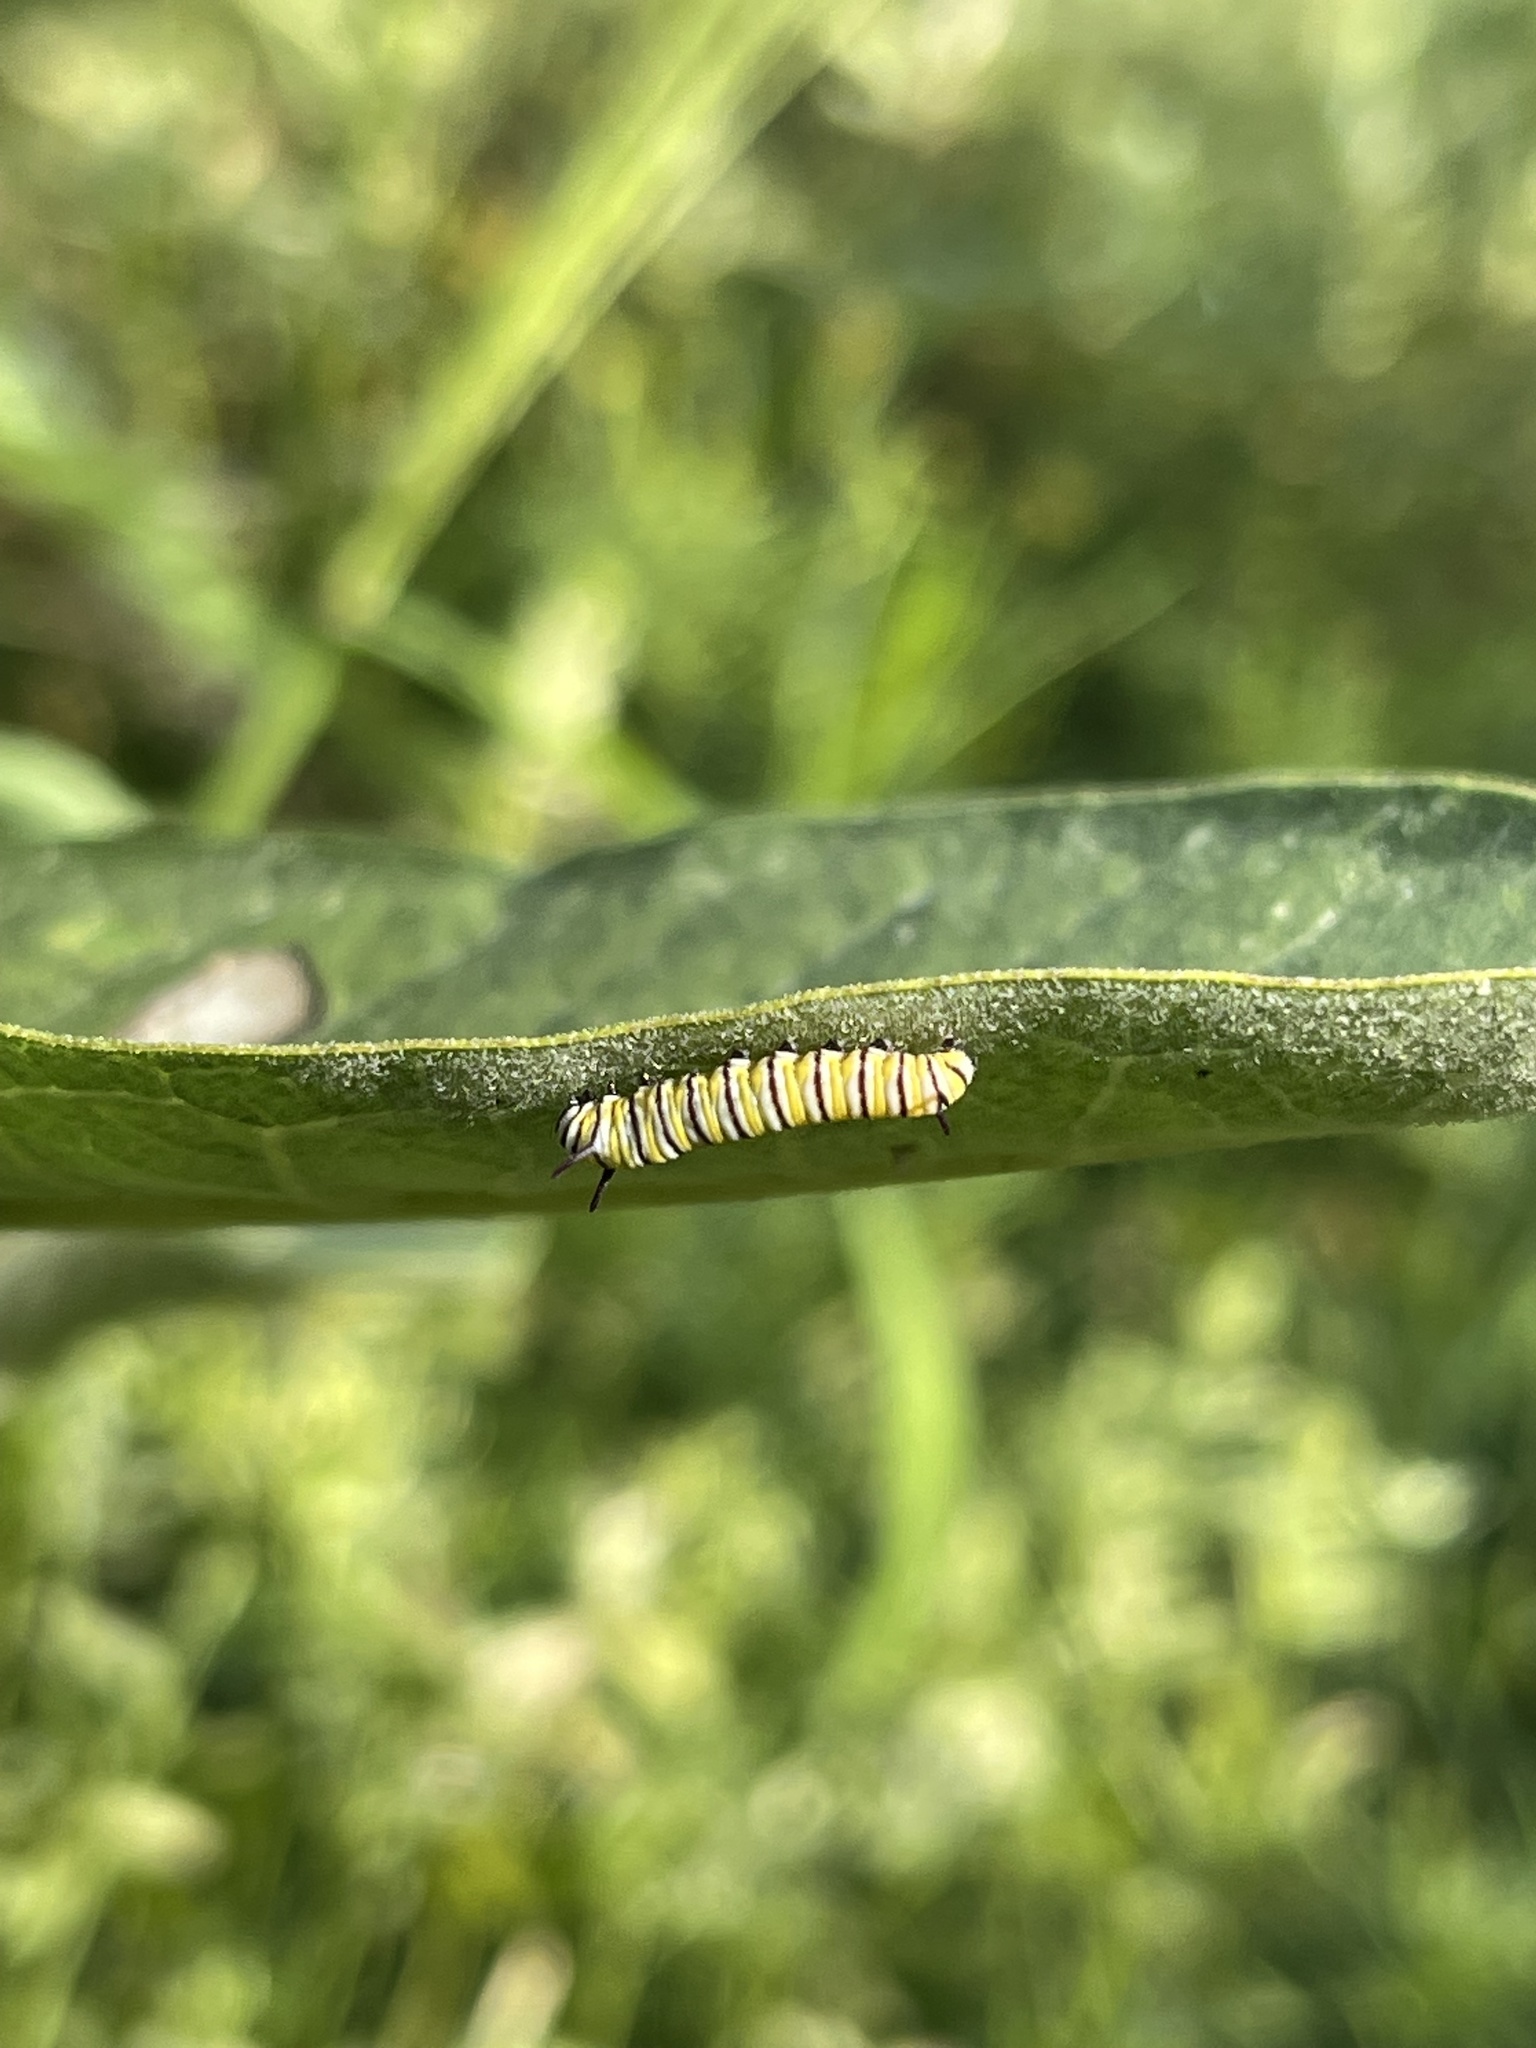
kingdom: Animalia
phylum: Arthropoda
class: Insecta
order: Lepidoptera
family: Nymphalidae
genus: Danaus
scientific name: Danaus plexippus
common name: Monarch
